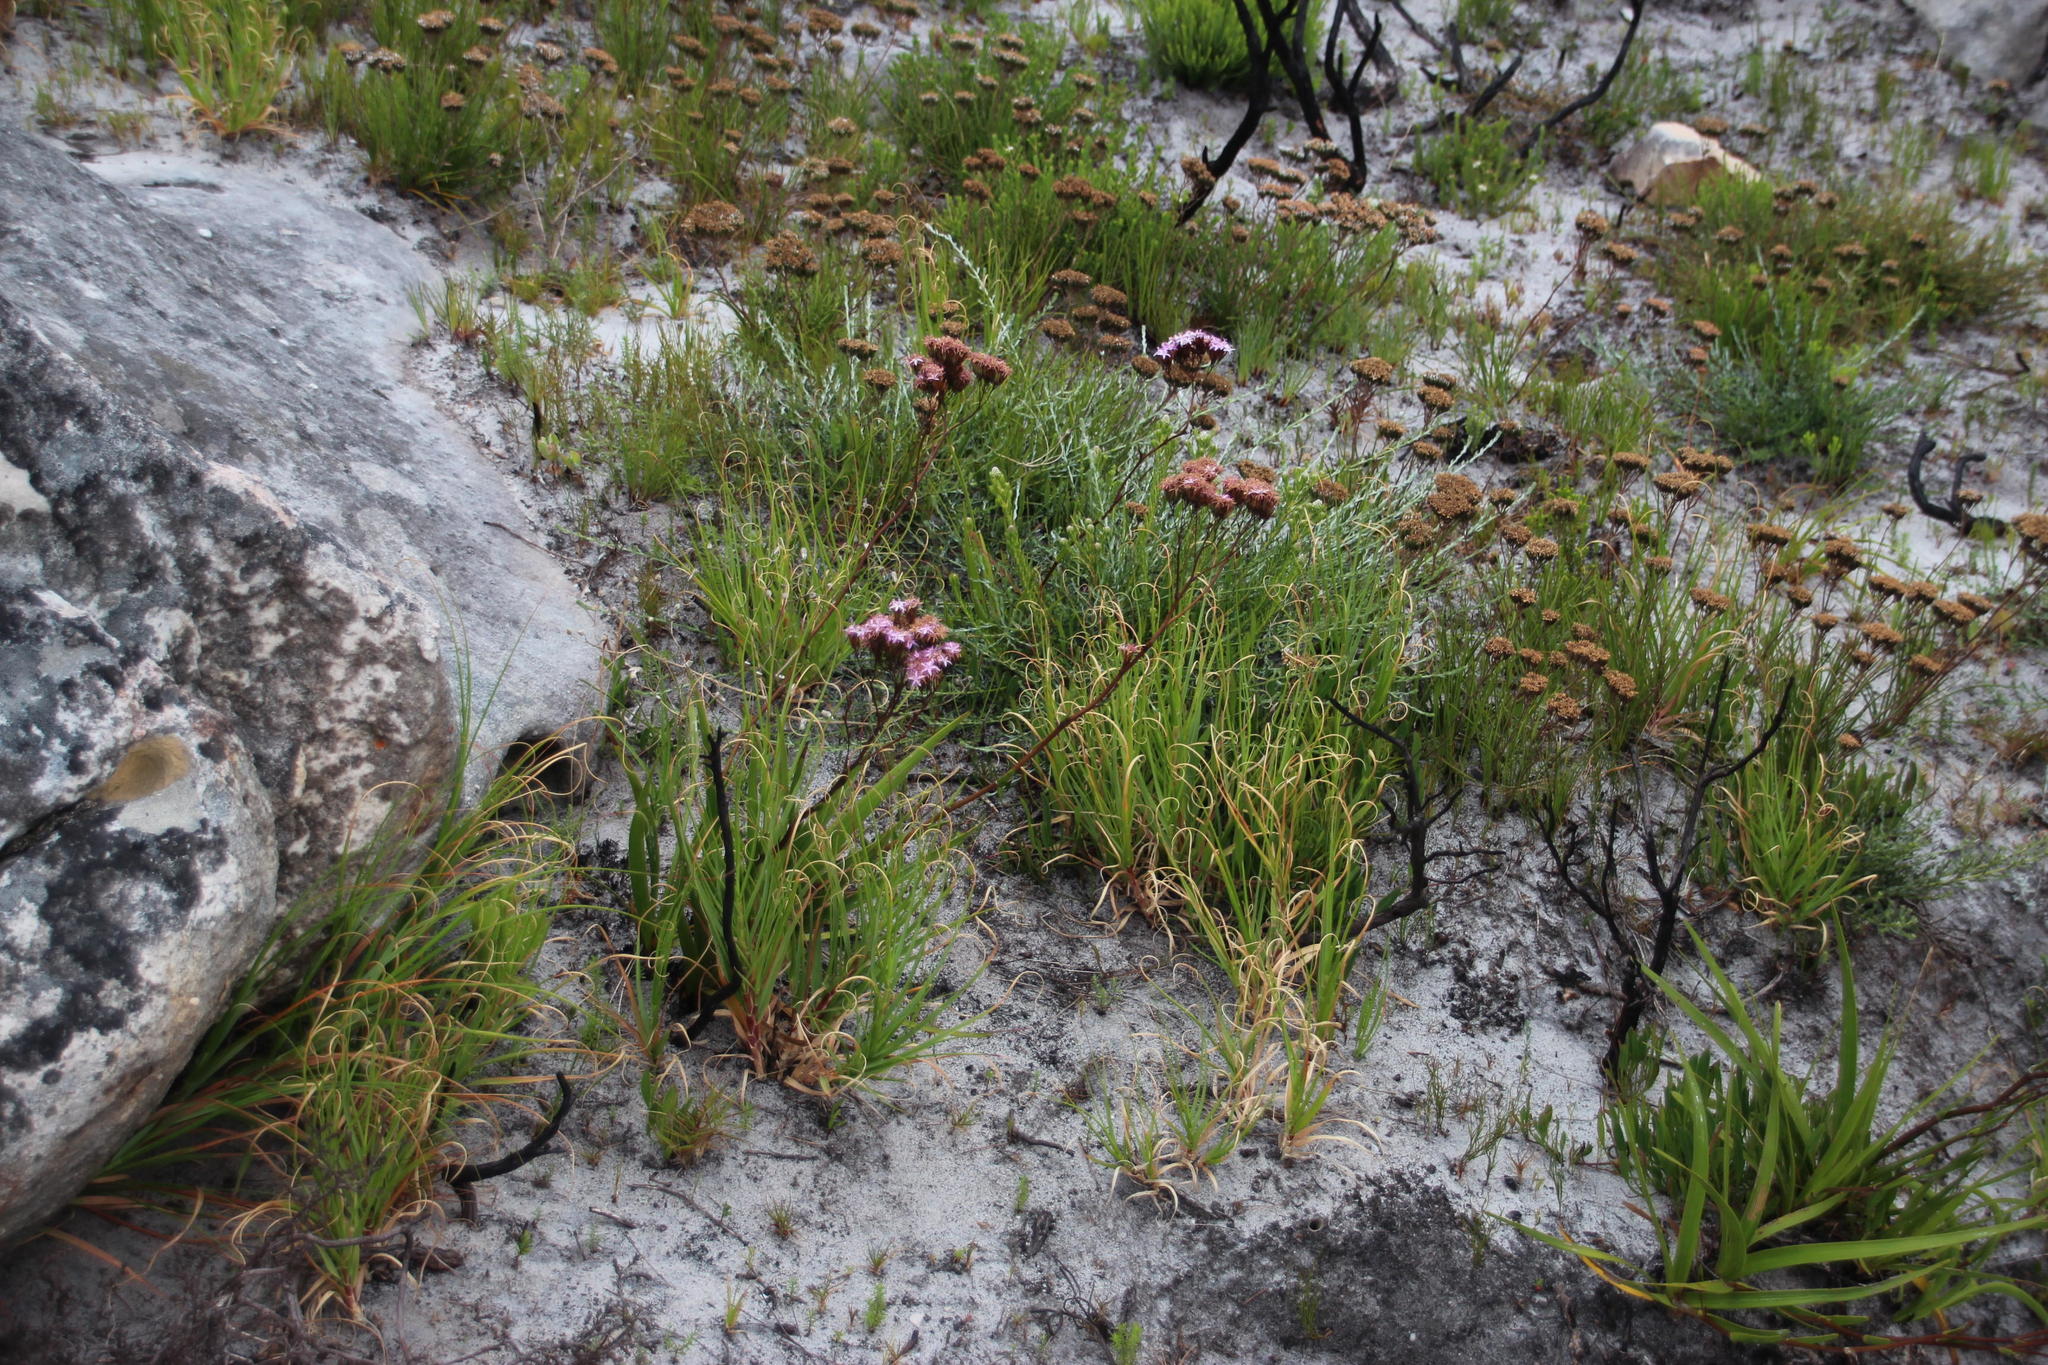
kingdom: Plantae
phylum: Tracheophyta
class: Magnoliopsida
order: Asterales
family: Asteraceae
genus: Corymbium
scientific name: Corymbium glabrum
